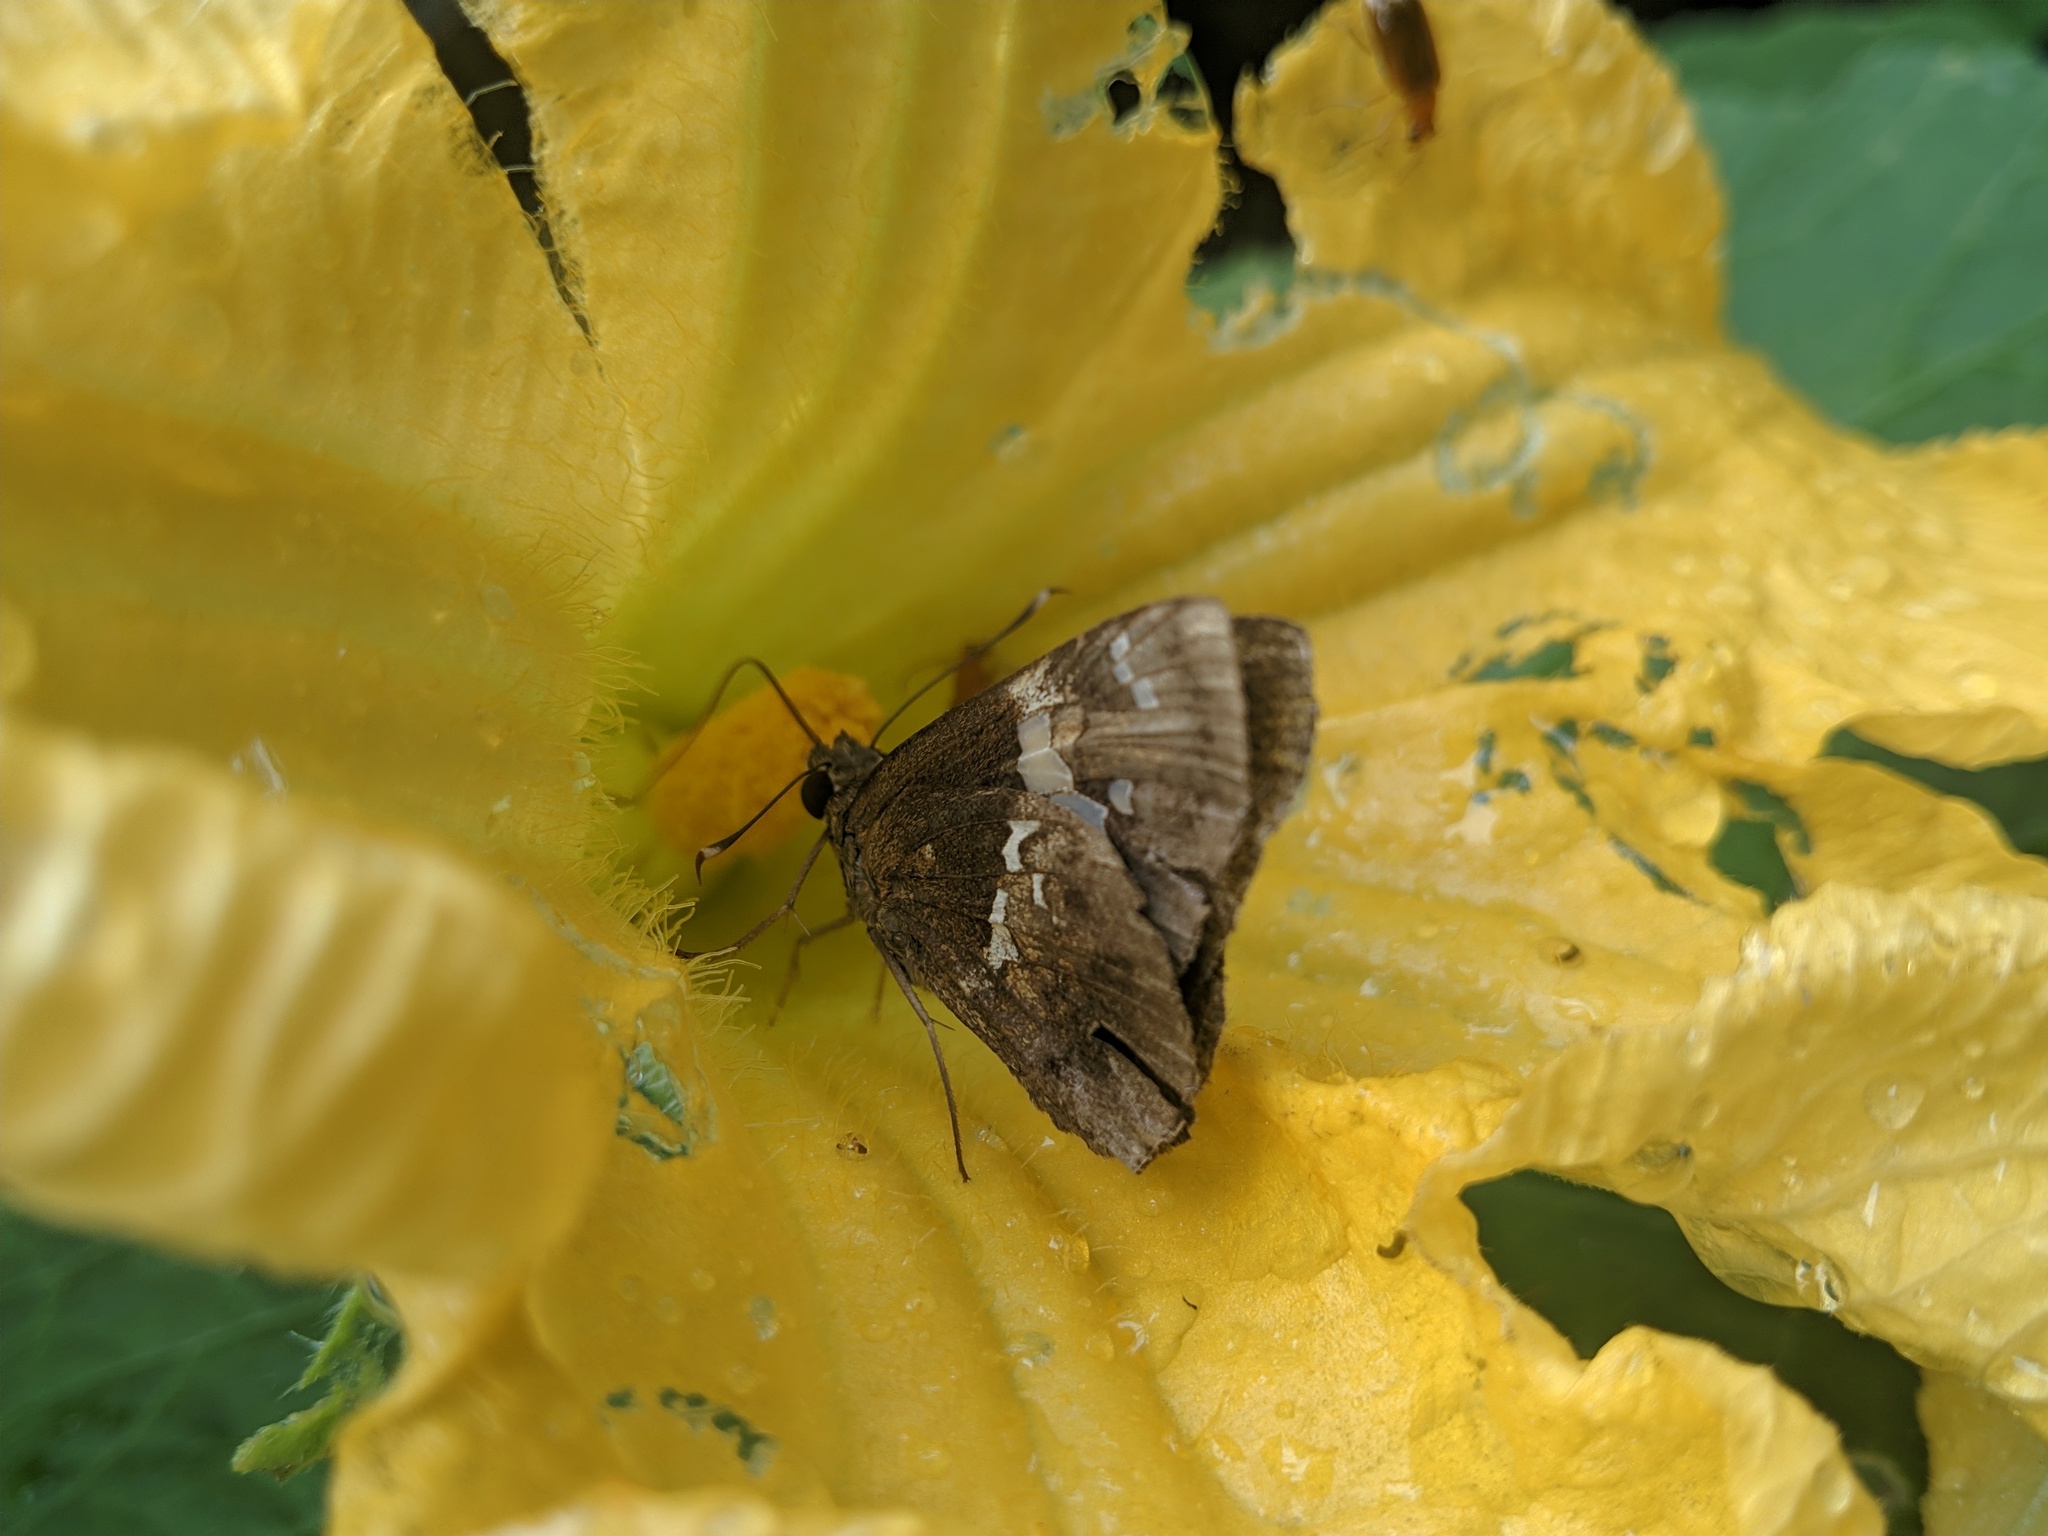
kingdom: Animalia
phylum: Arthropoda
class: Insecta
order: Lepidoptera
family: Hesperiidae
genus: Hyarotis
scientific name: Hyarotis adrastus
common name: Tree flitter
